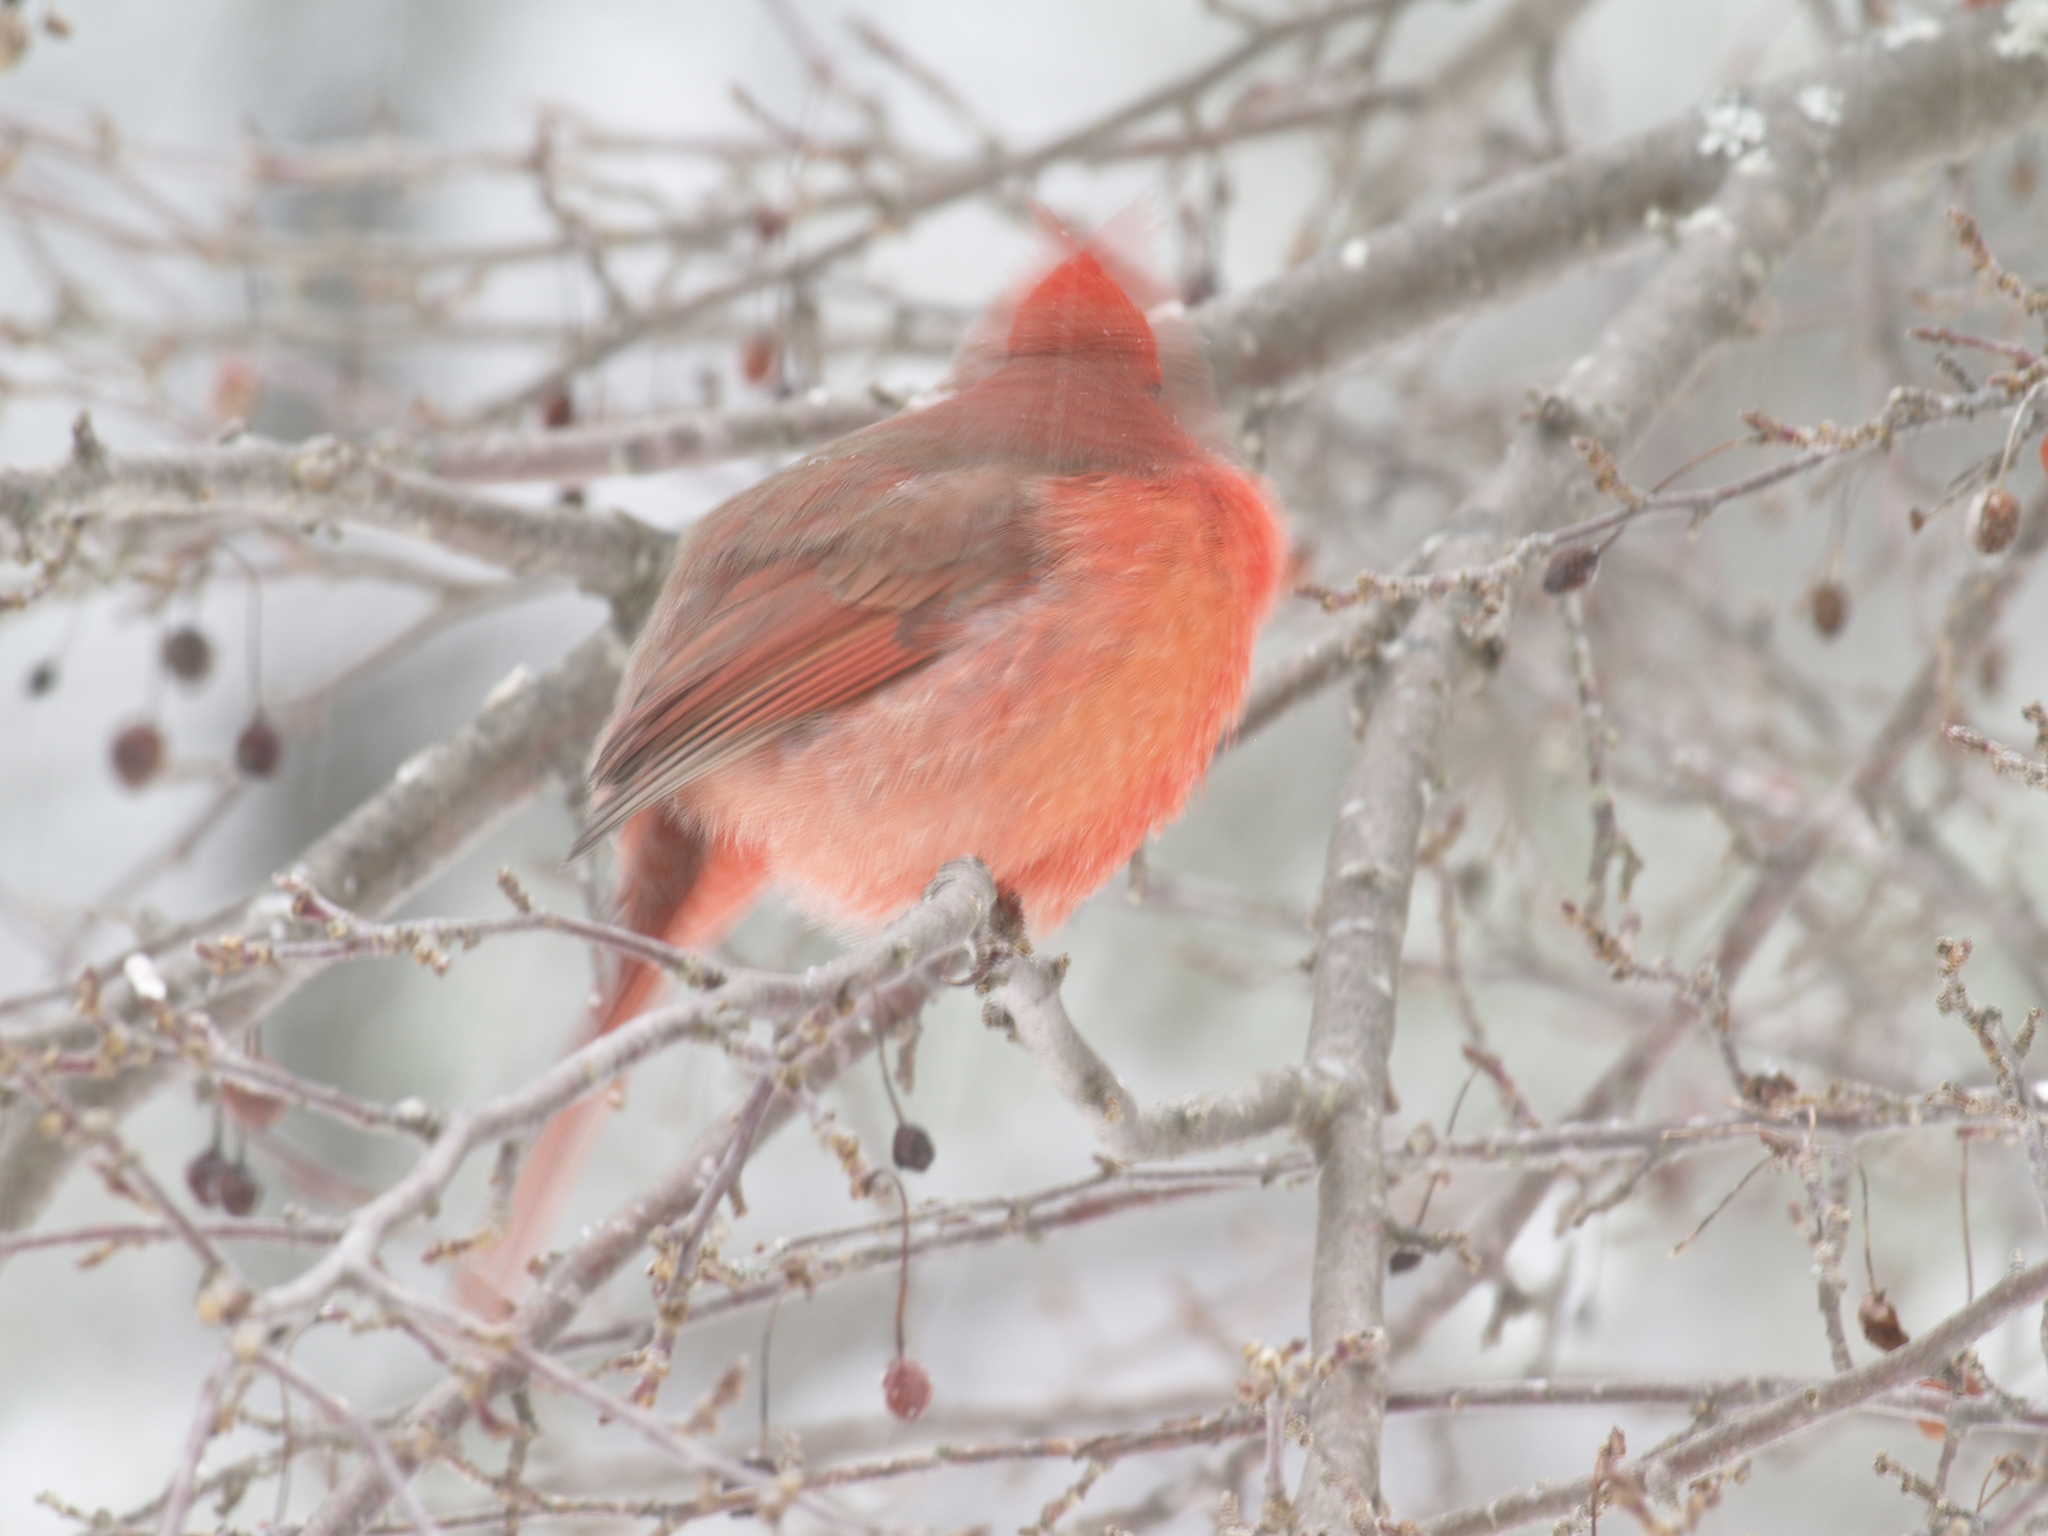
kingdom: Animalia
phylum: Chordata
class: Aves
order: Passeriformes
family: Cardinalidae
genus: Cardinalis
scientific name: Cardinalis cardinalis
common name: Northern cardinal
